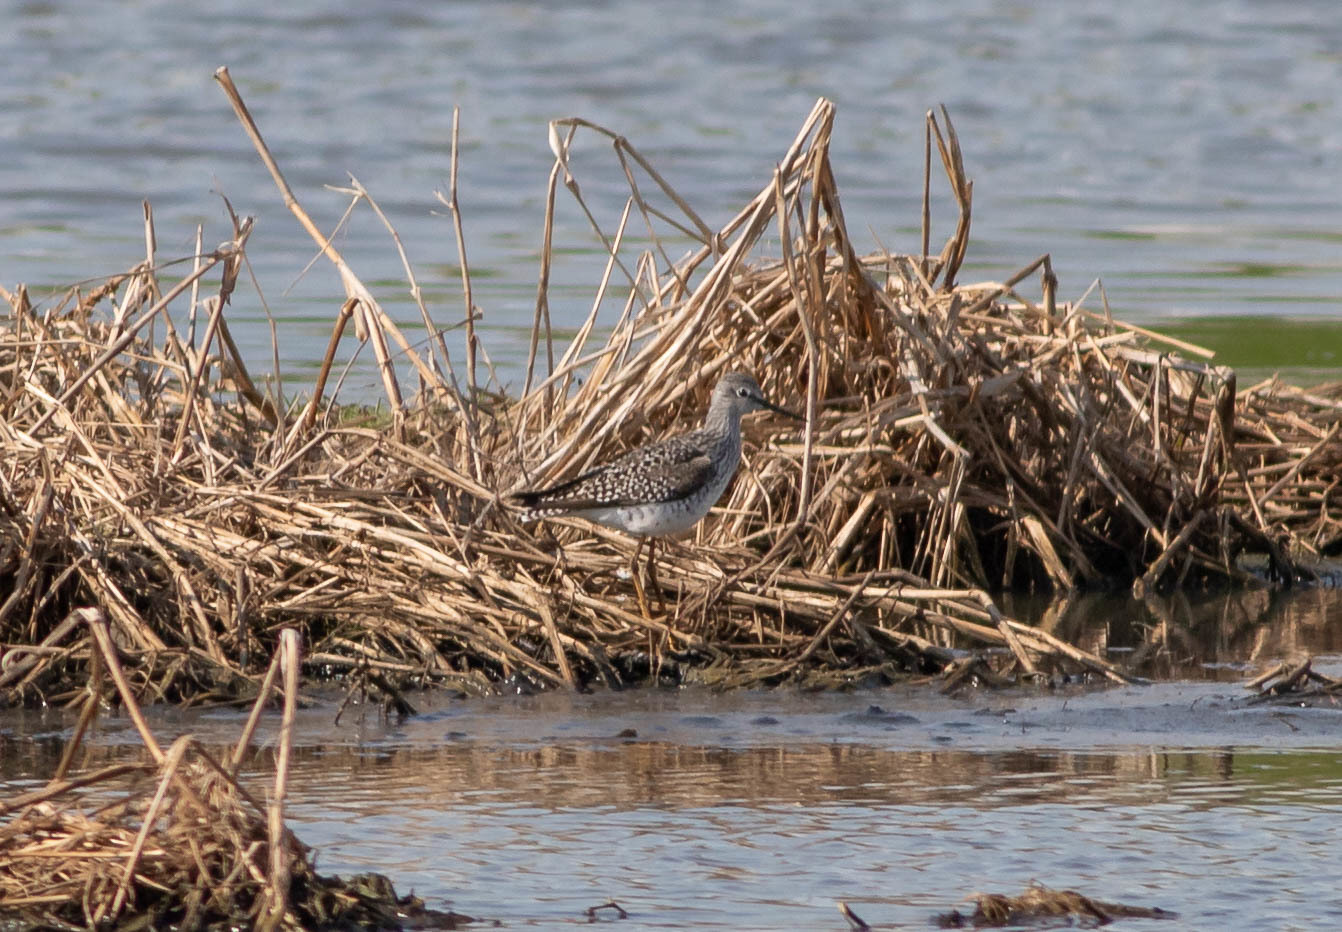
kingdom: Animalia
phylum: Chordata
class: Aves
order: Charadriiformes
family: Scolopacidae
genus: Tringa
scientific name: Tringa flavipes
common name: Lesser yellowlegs
